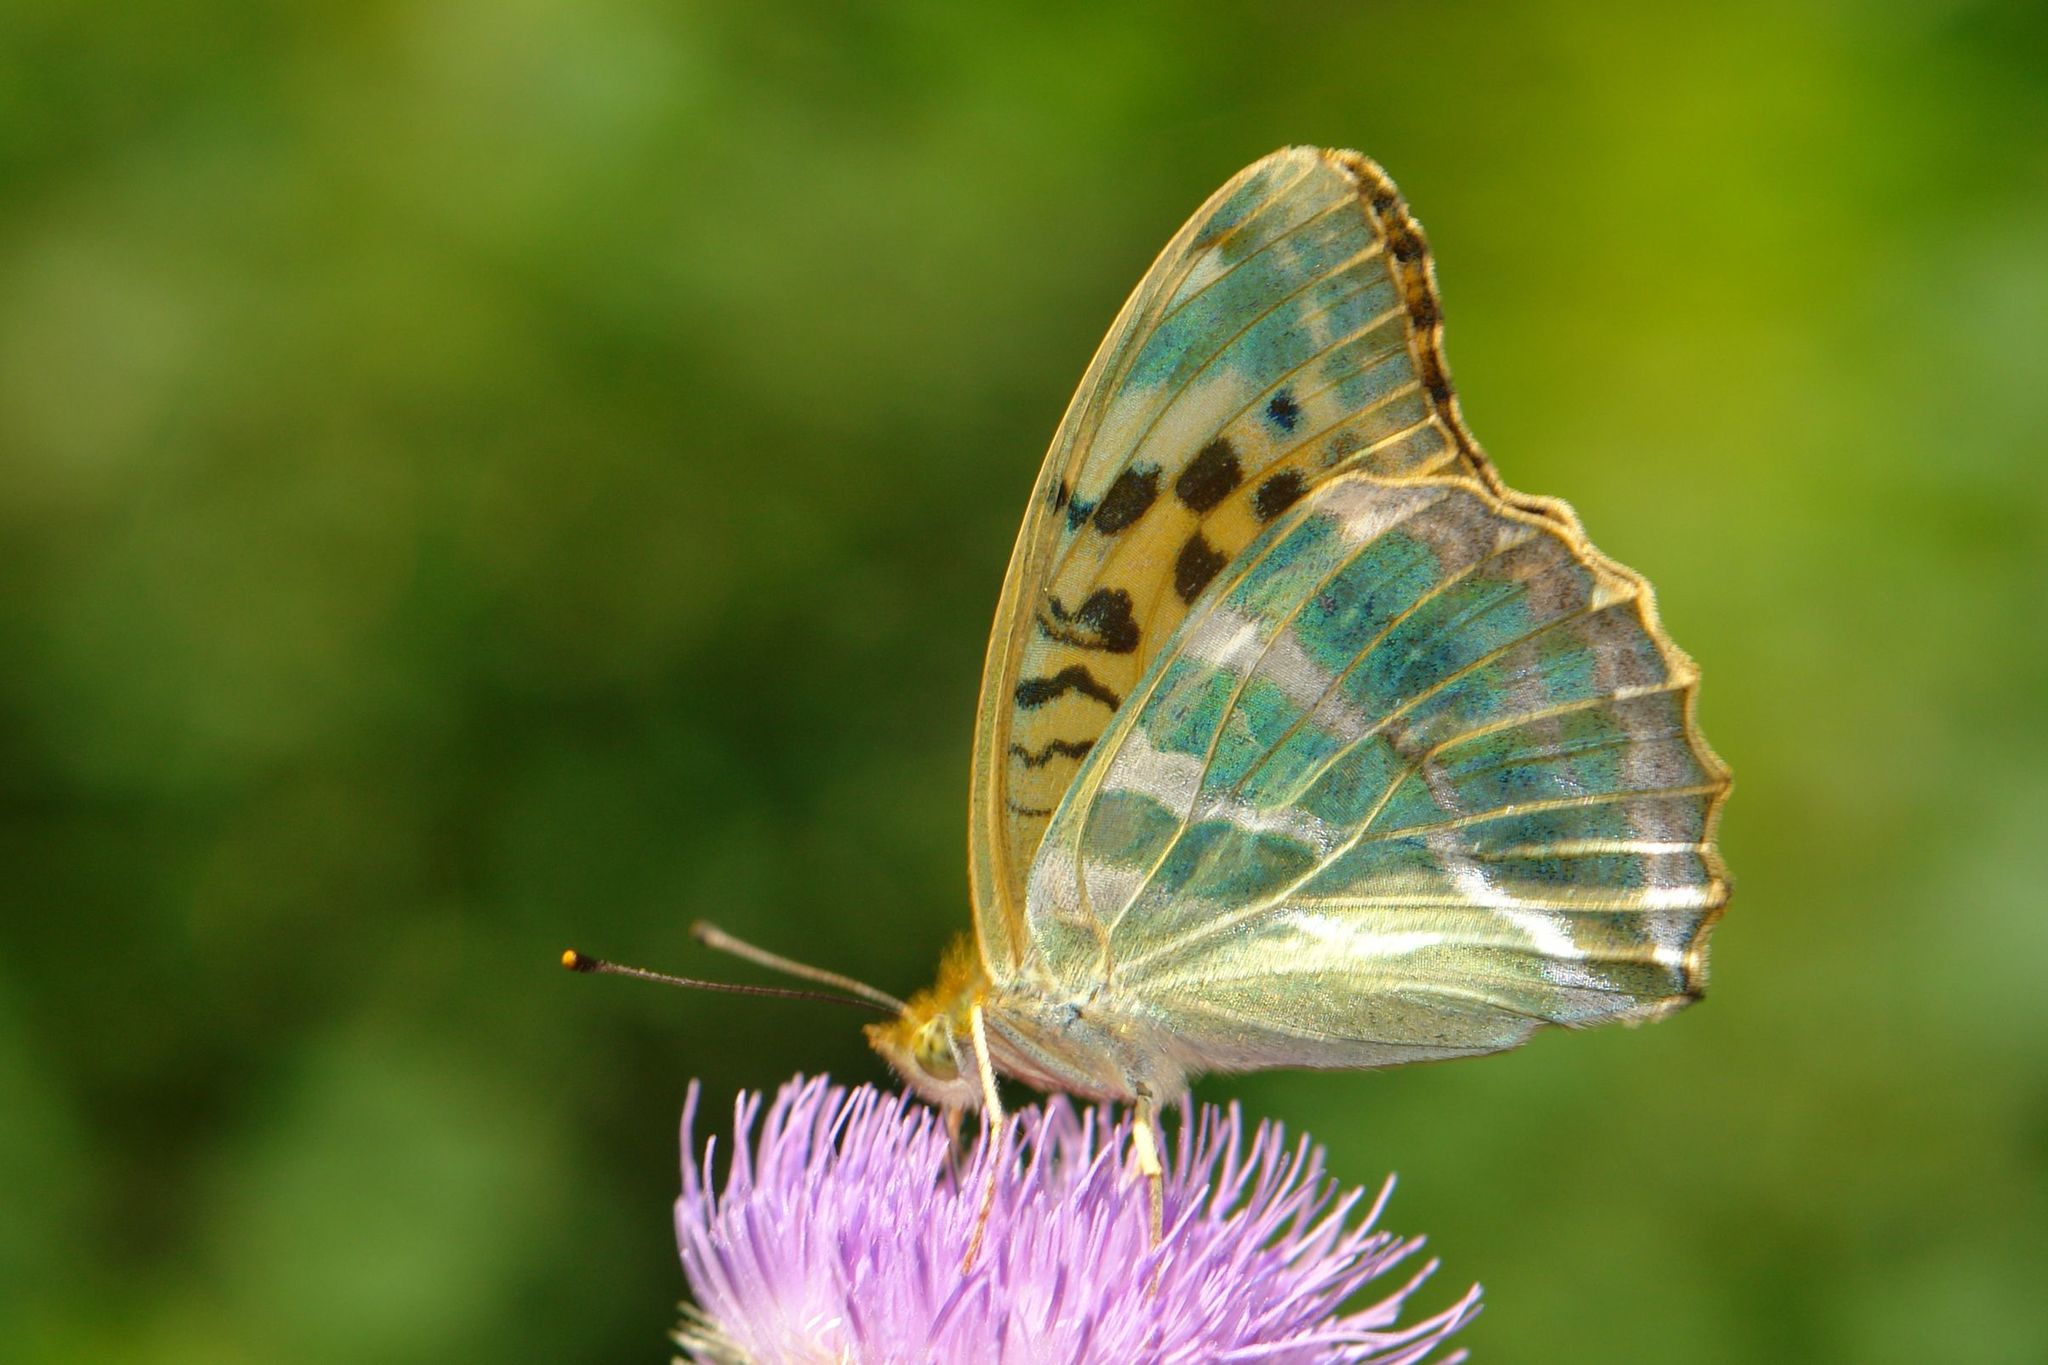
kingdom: Animalia
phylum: Arthropoda
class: Insecta
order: Lepidoptera
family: Nymphalidae
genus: Argynnis
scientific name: Argynnis paphia
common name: Silver-washed fritillary
